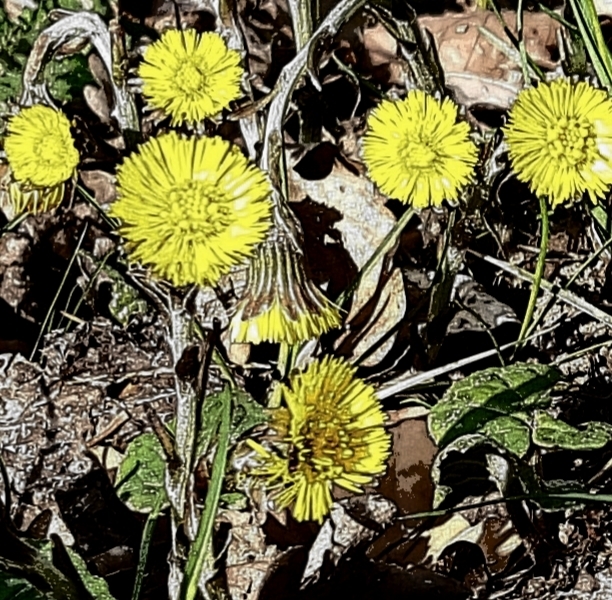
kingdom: Plantae
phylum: Tracheophyta
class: Magnoliopsida
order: Asterales
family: Asteraceae
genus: Tussilago
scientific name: Tussilago farfara
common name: Coltsfoot
